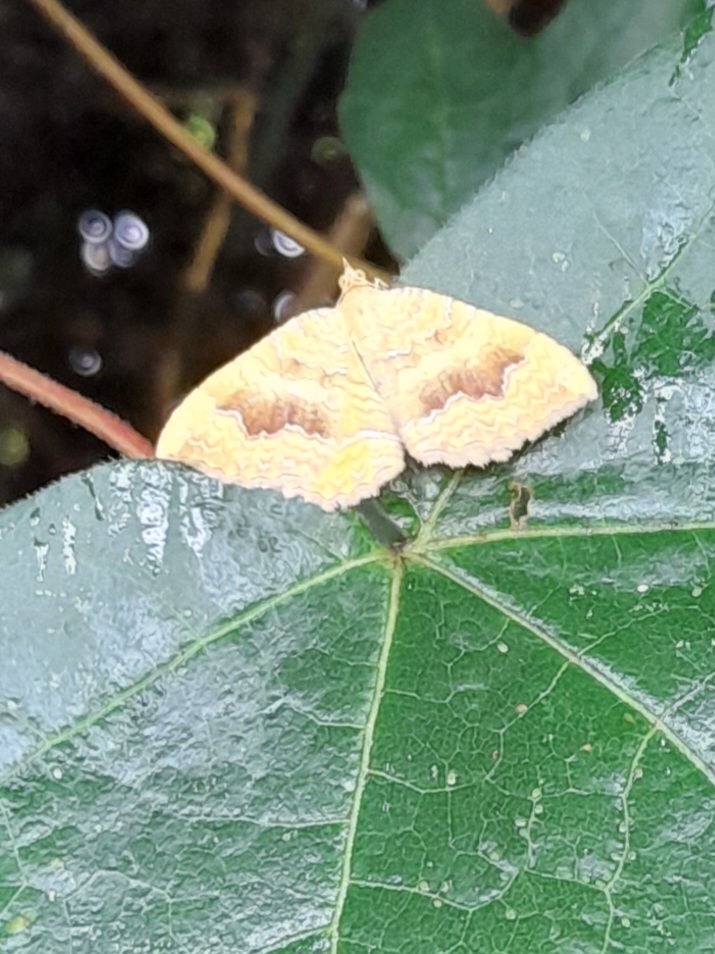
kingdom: Animalia
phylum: Arthropoda
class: Insecta
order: Lepidoptera
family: Geometridae
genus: Camptogramma
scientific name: Camptogramma bilineata
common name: Yellow shell
